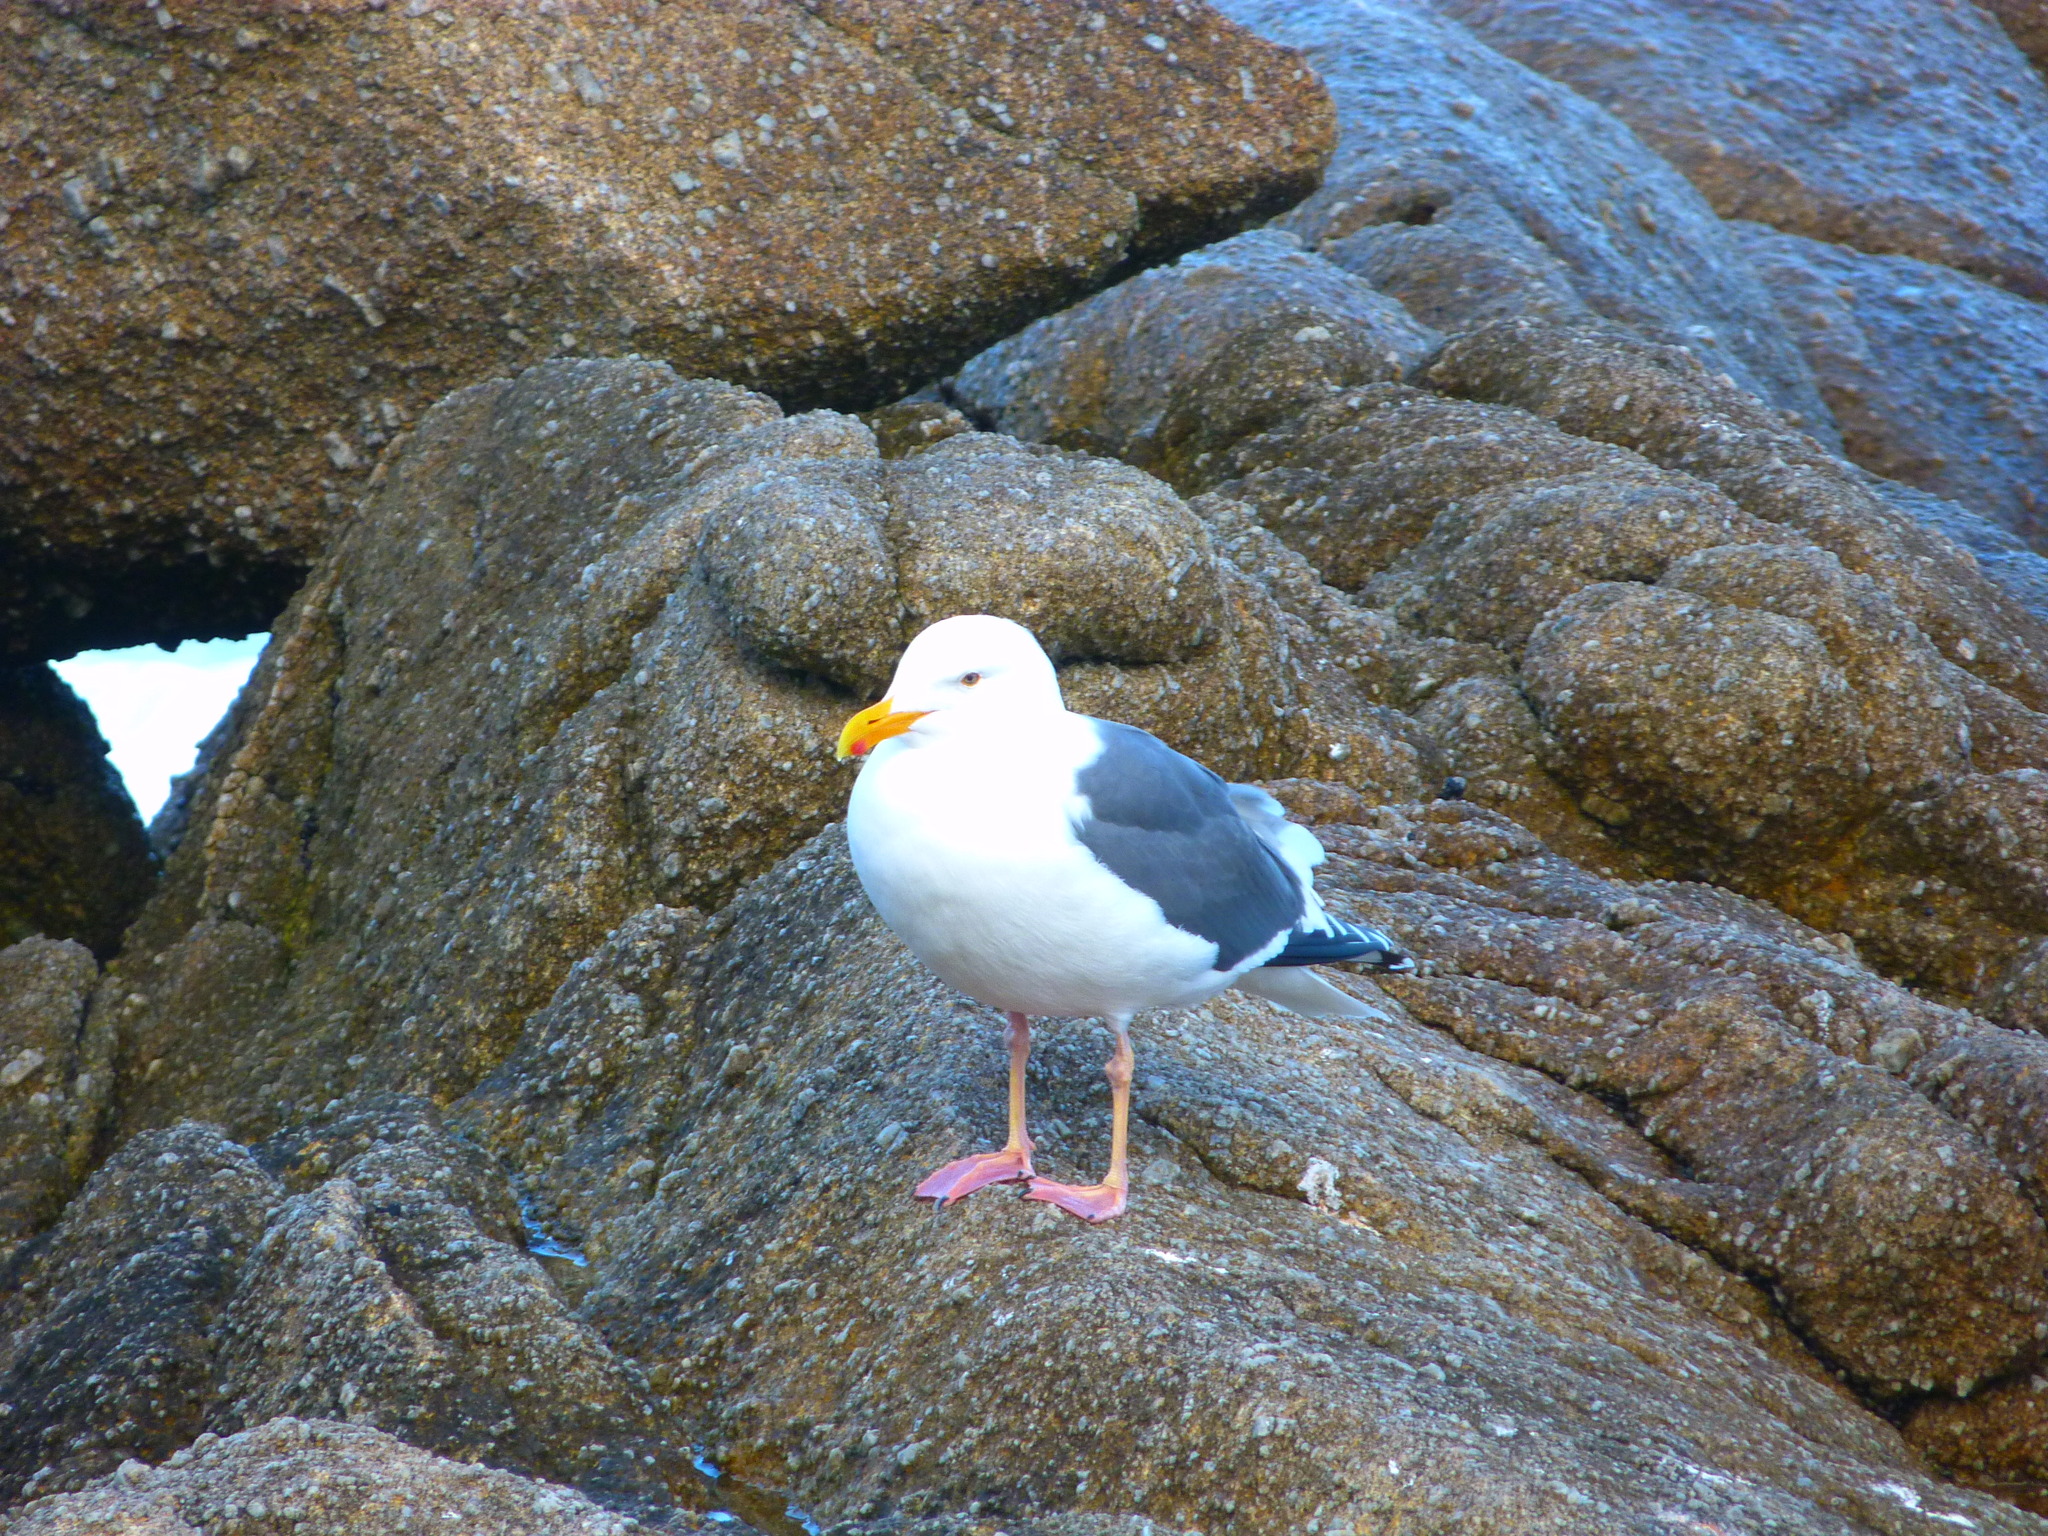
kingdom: Animalia
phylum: Chordata
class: Aves
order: Charadriiformes
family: Laridae
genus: Larus
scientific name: Larus occidentalis
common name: Western gull
